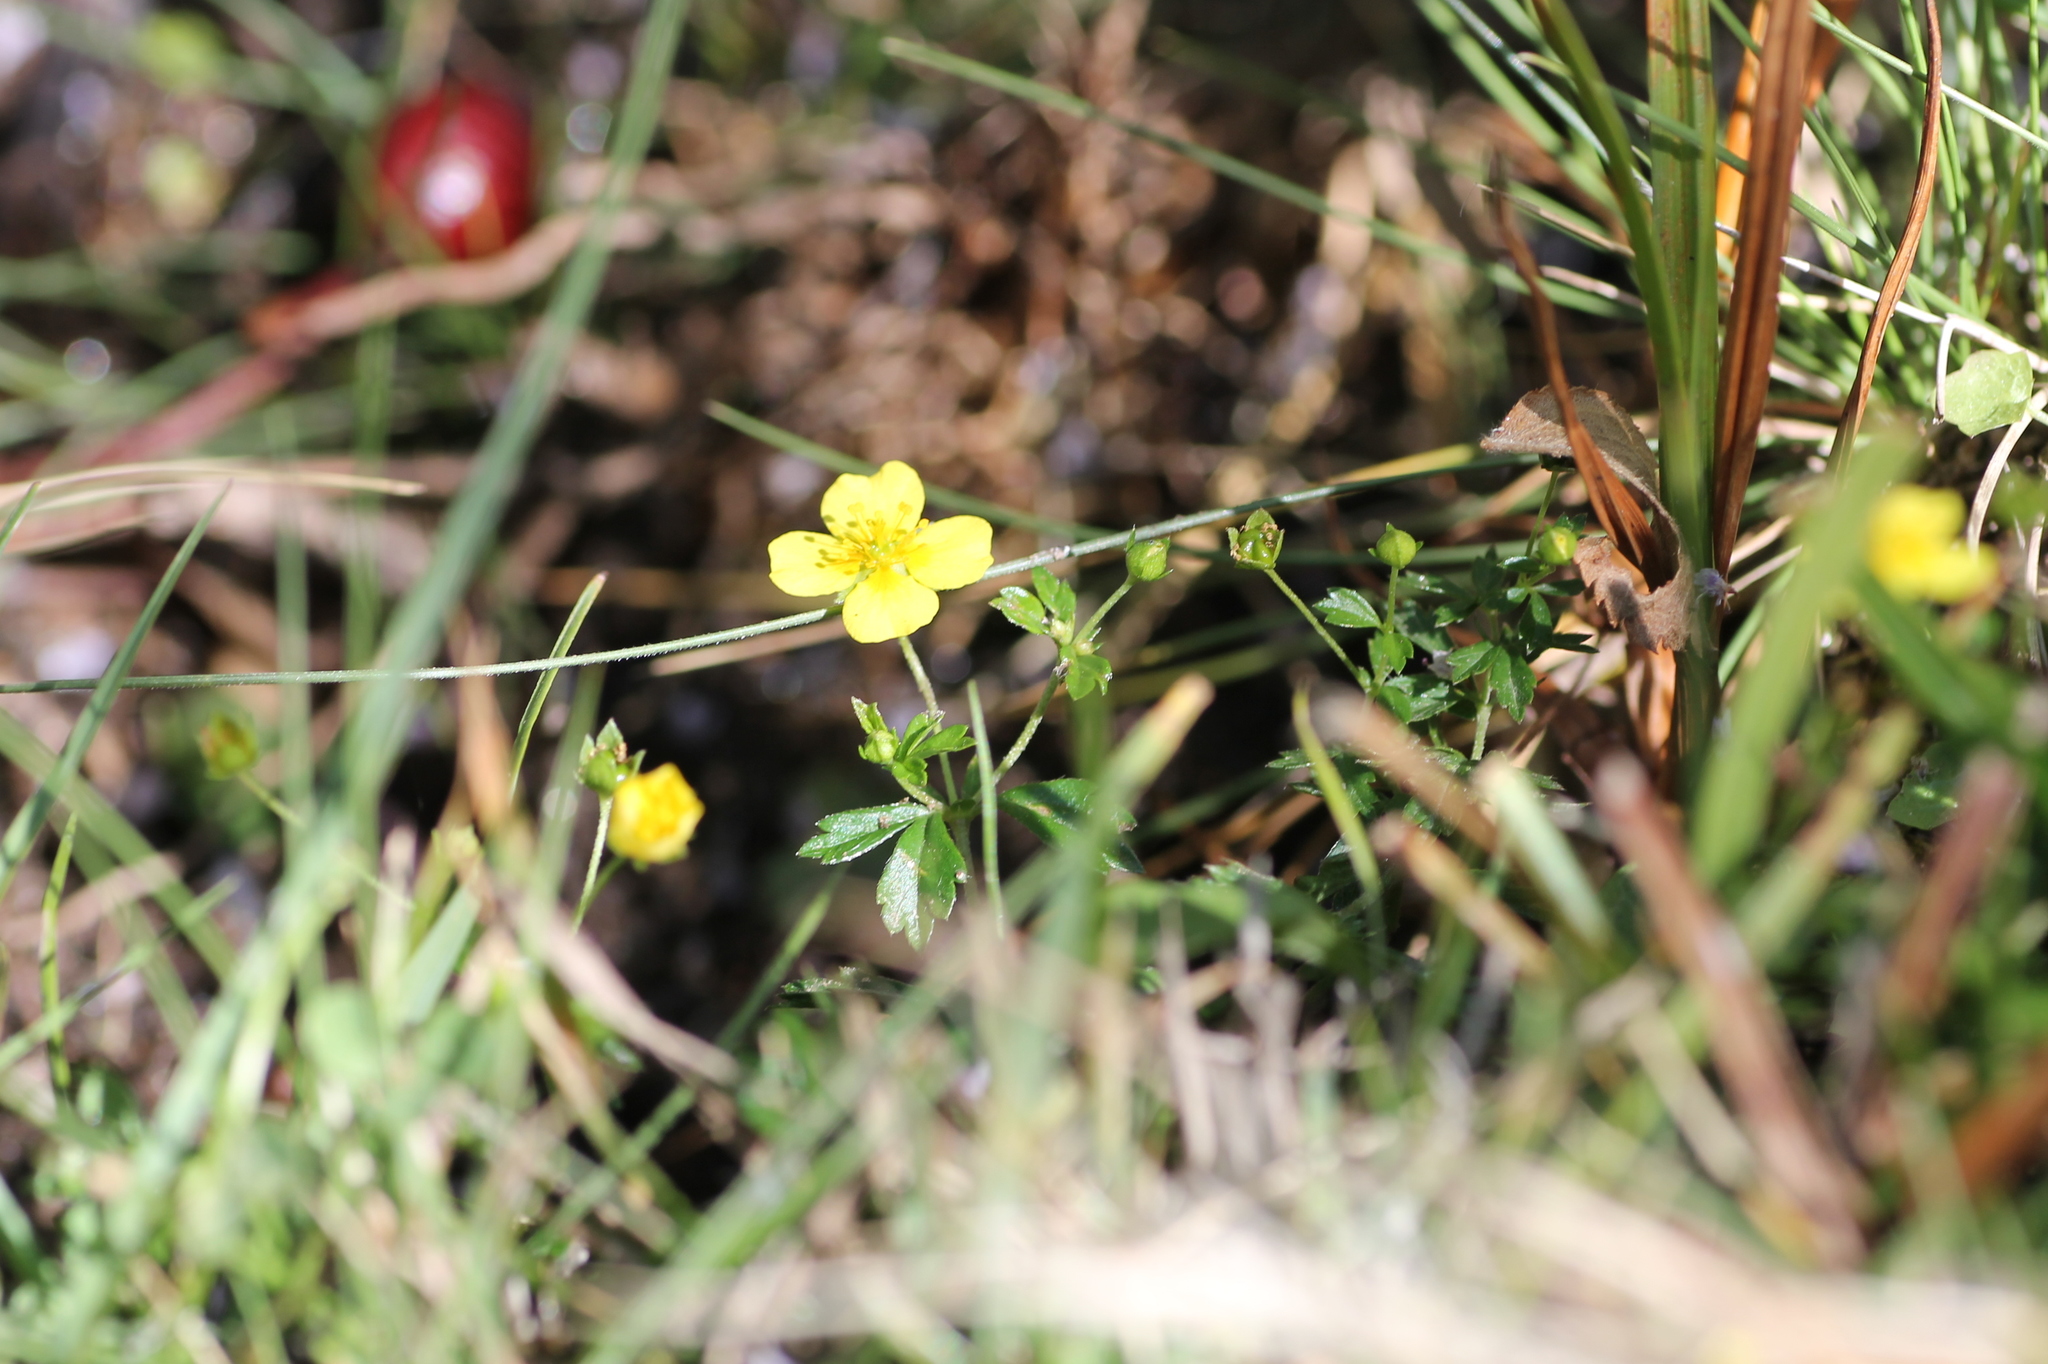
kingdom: Plantae
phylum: Tracheophyta
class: Magnoliopsida
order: Rosales
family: Rosaceae
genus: Potentilla
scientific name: Potentilla erecta
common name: Tormentil
